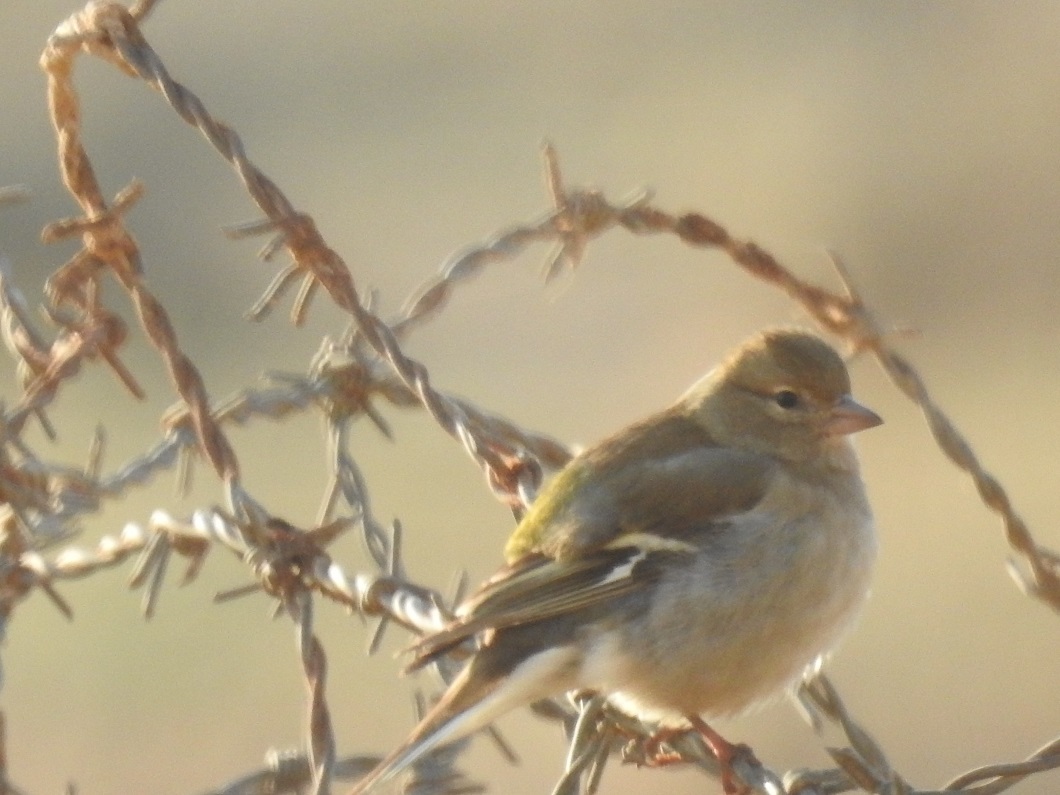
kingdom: Animalia
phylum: Chordata
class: Aves
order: Passeriformes
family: Fringillidae
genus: Fringilla
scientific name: Fringilla spodiogenys
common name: African chaffinch
